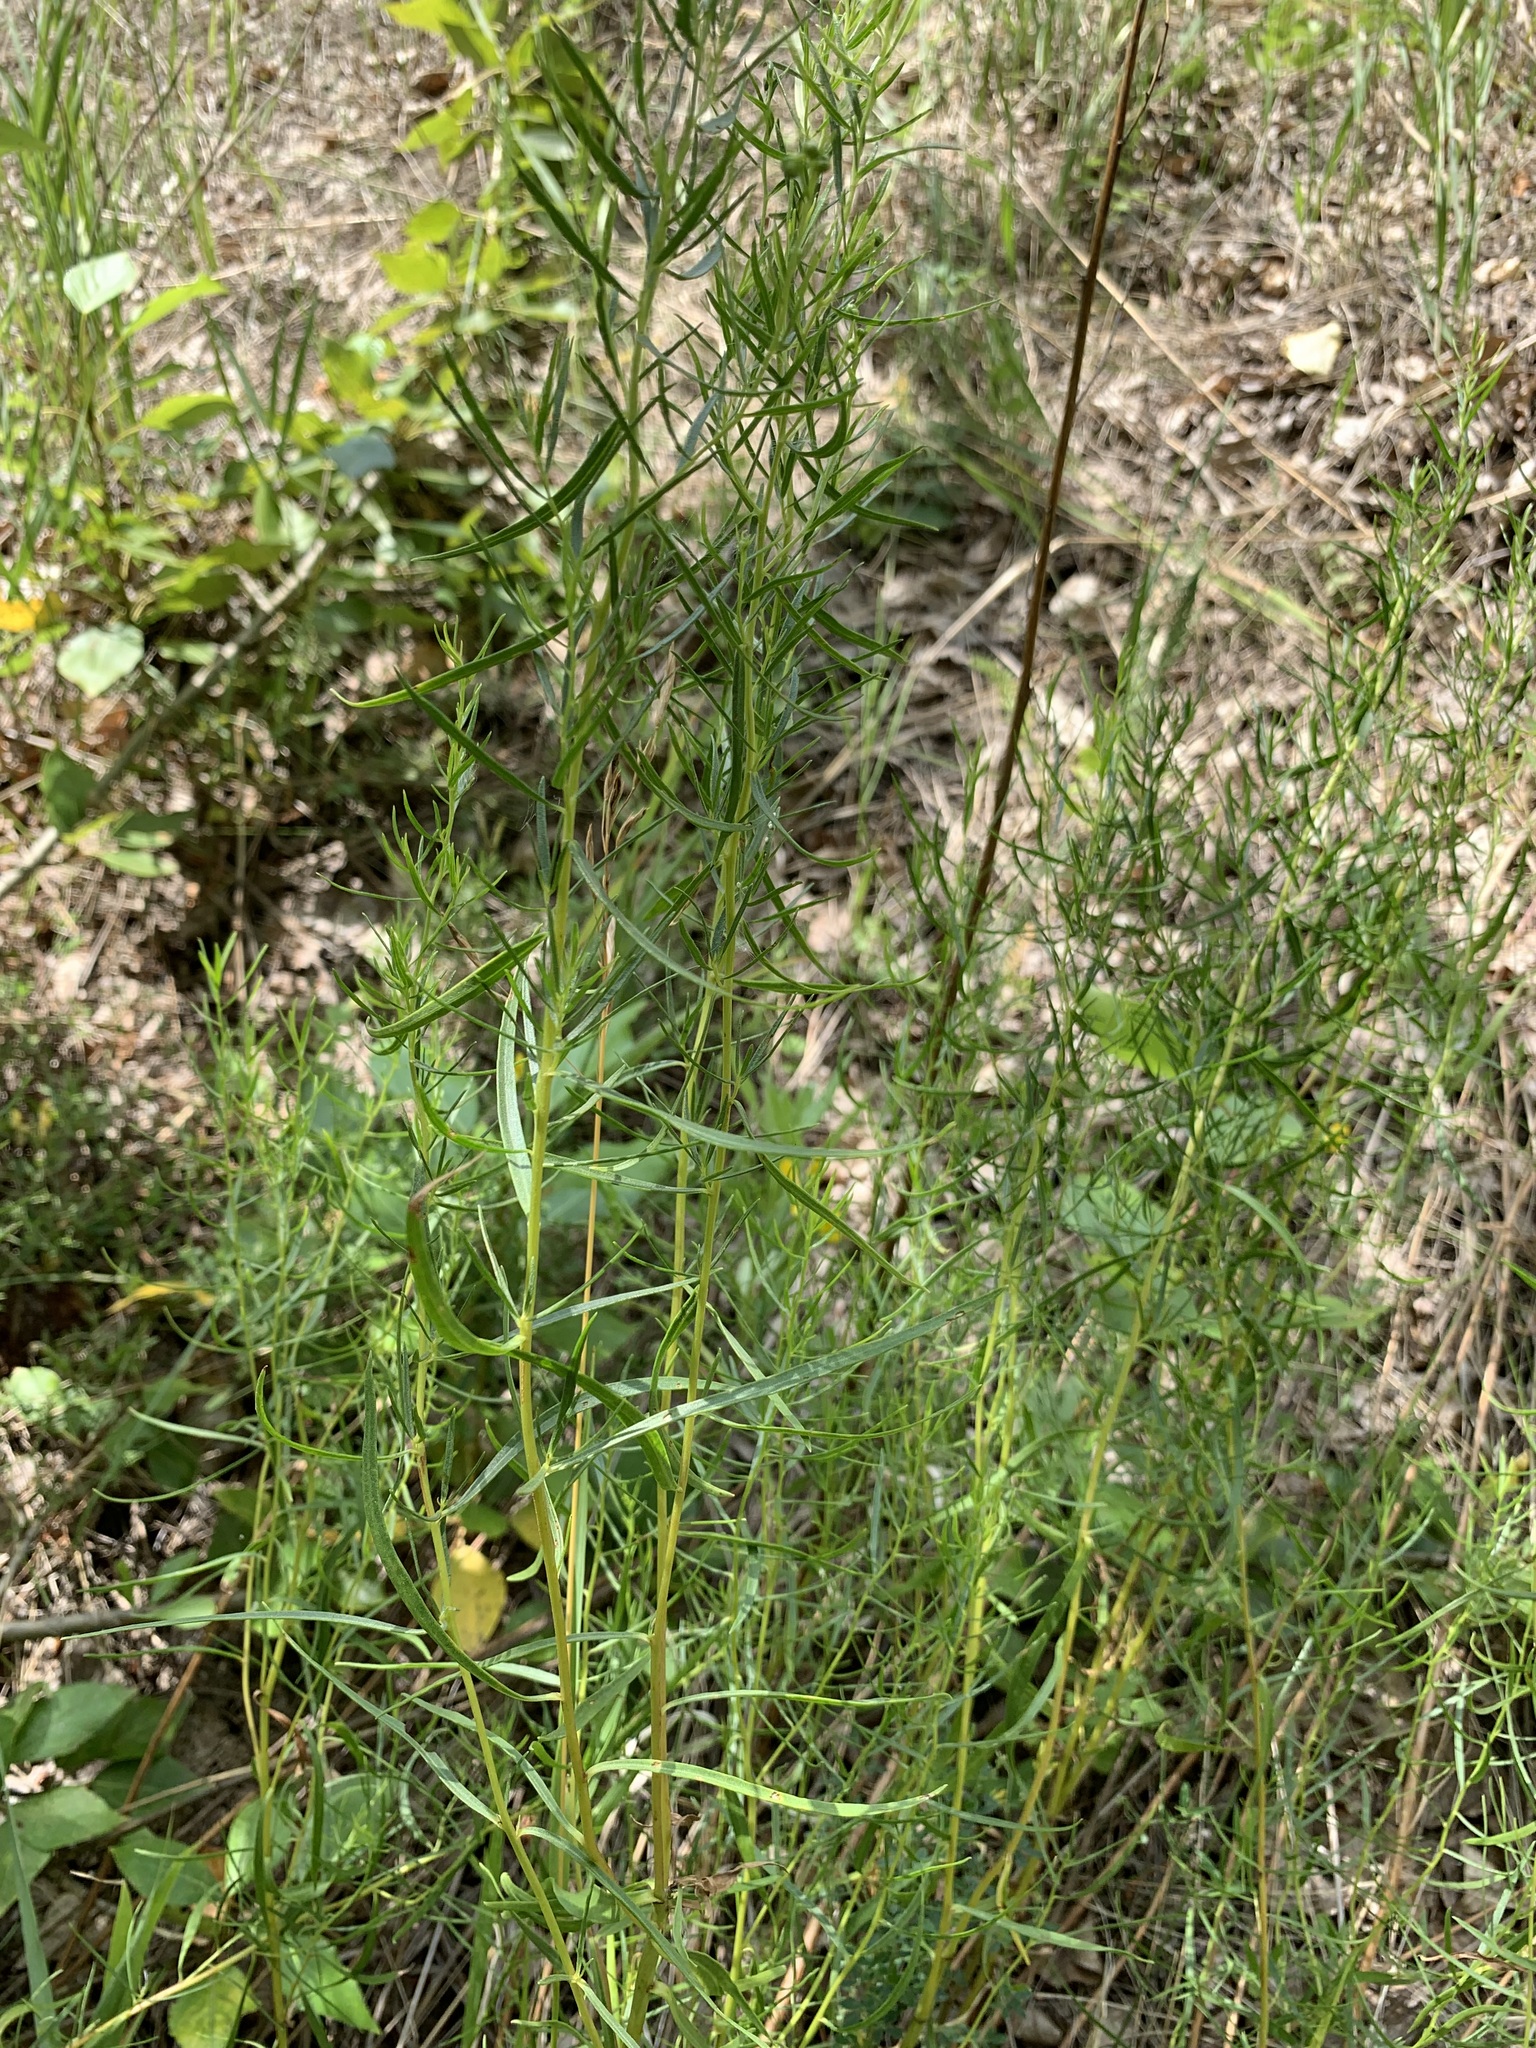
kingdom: Plantae
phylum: Tracheophyta
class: Magnoliopsida
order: Asterales
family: Asteraceae
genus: Artemisia
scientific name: Artemisia dracunculus
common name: Tarragon
